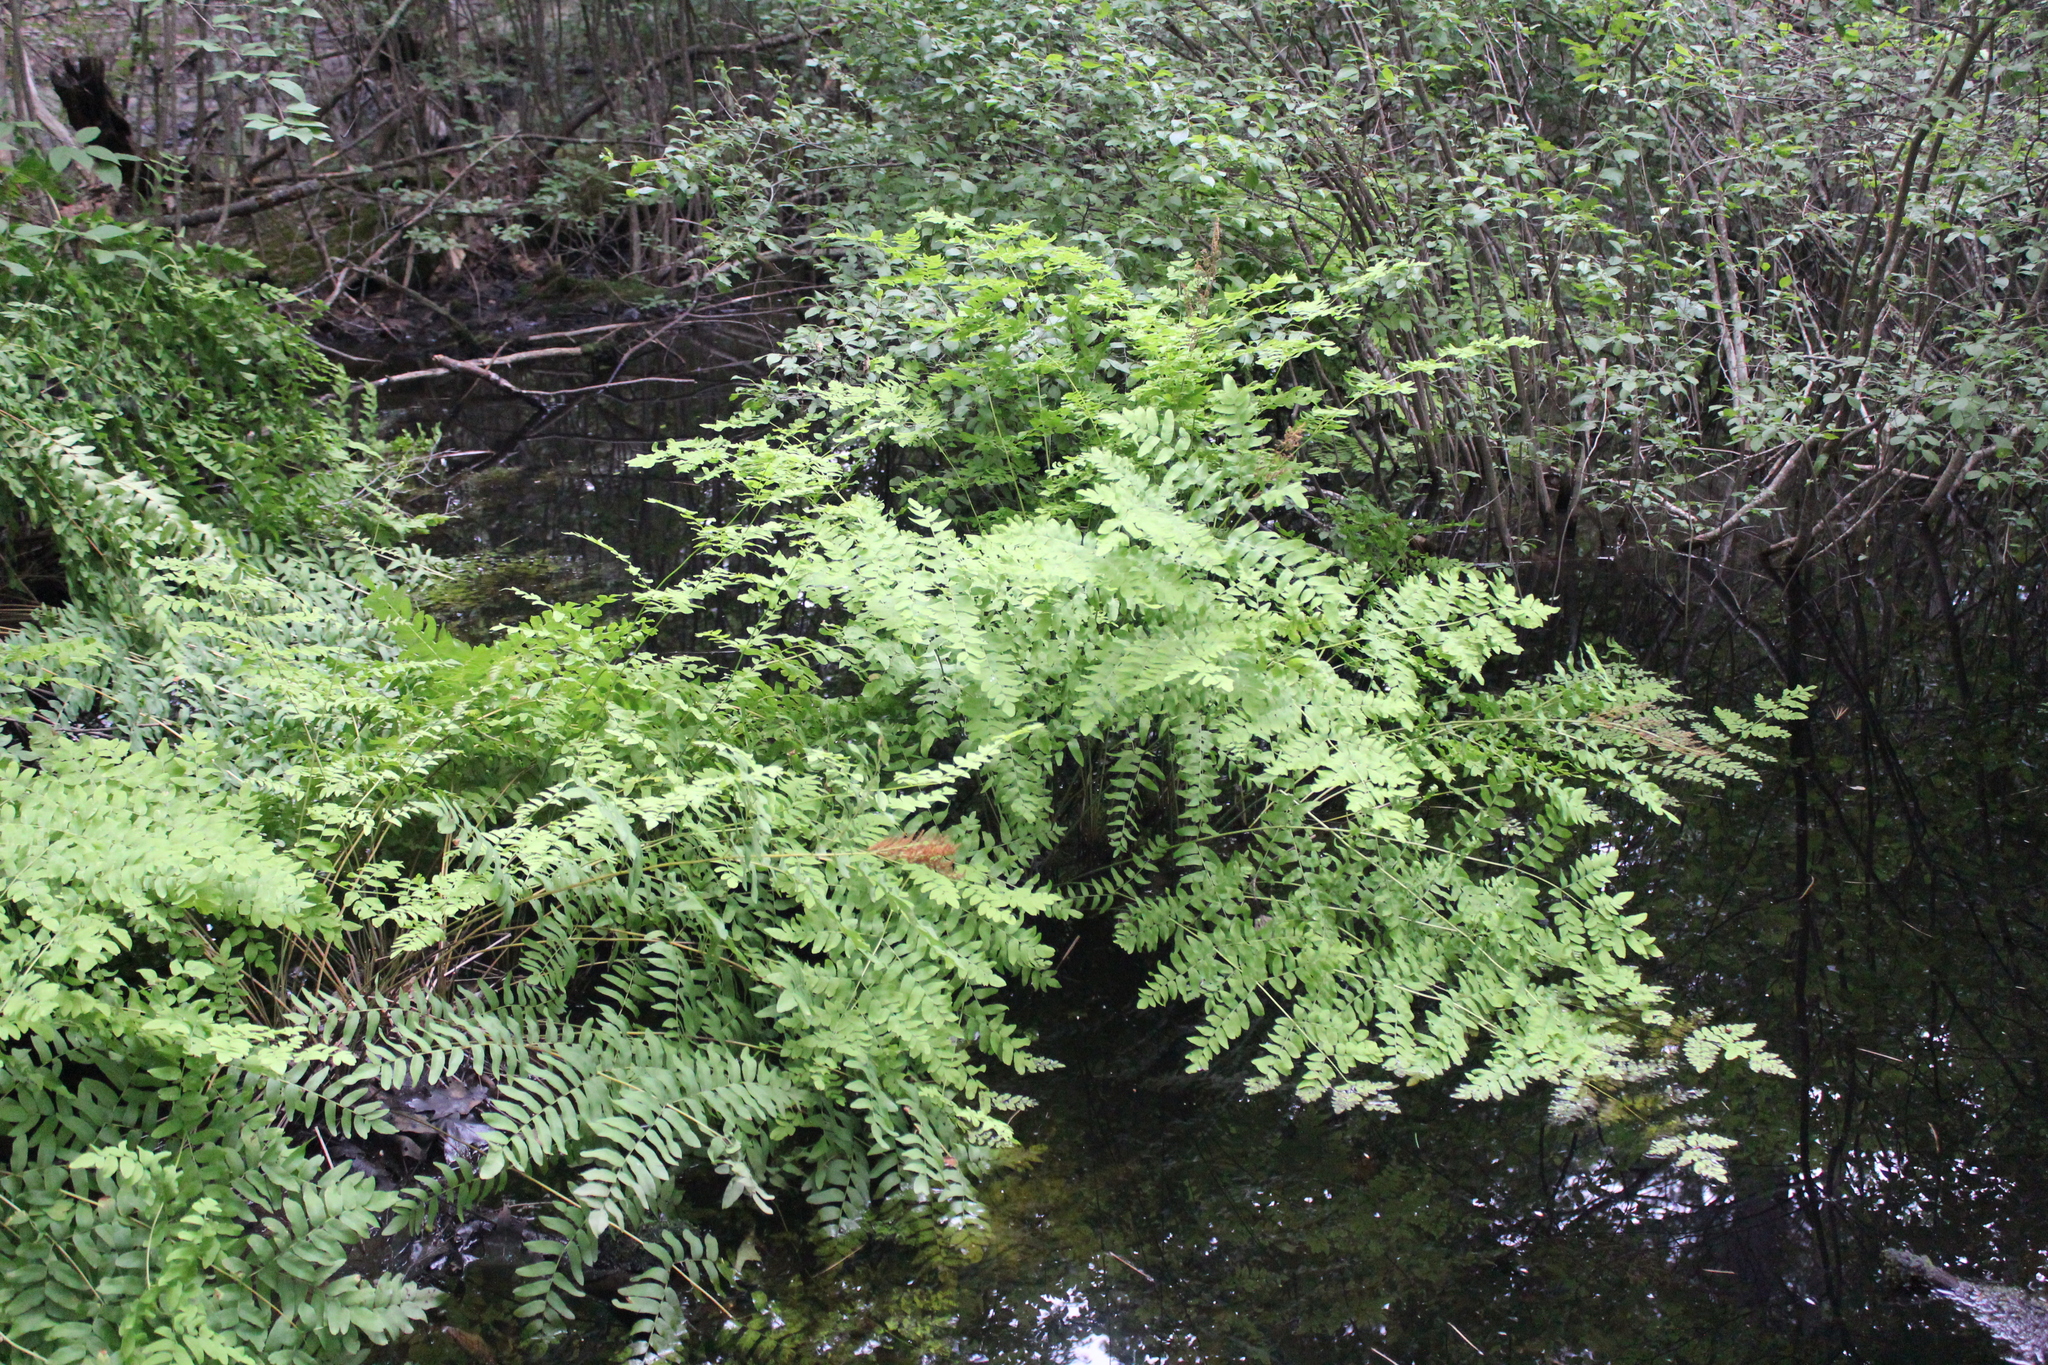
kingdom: Plantae
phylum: Tracheophyta
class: Polypodiopsida
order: Osmundales
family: Osmundaceae
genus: Osmunda
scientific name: Osmunda spectabilis
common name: American royal fern
